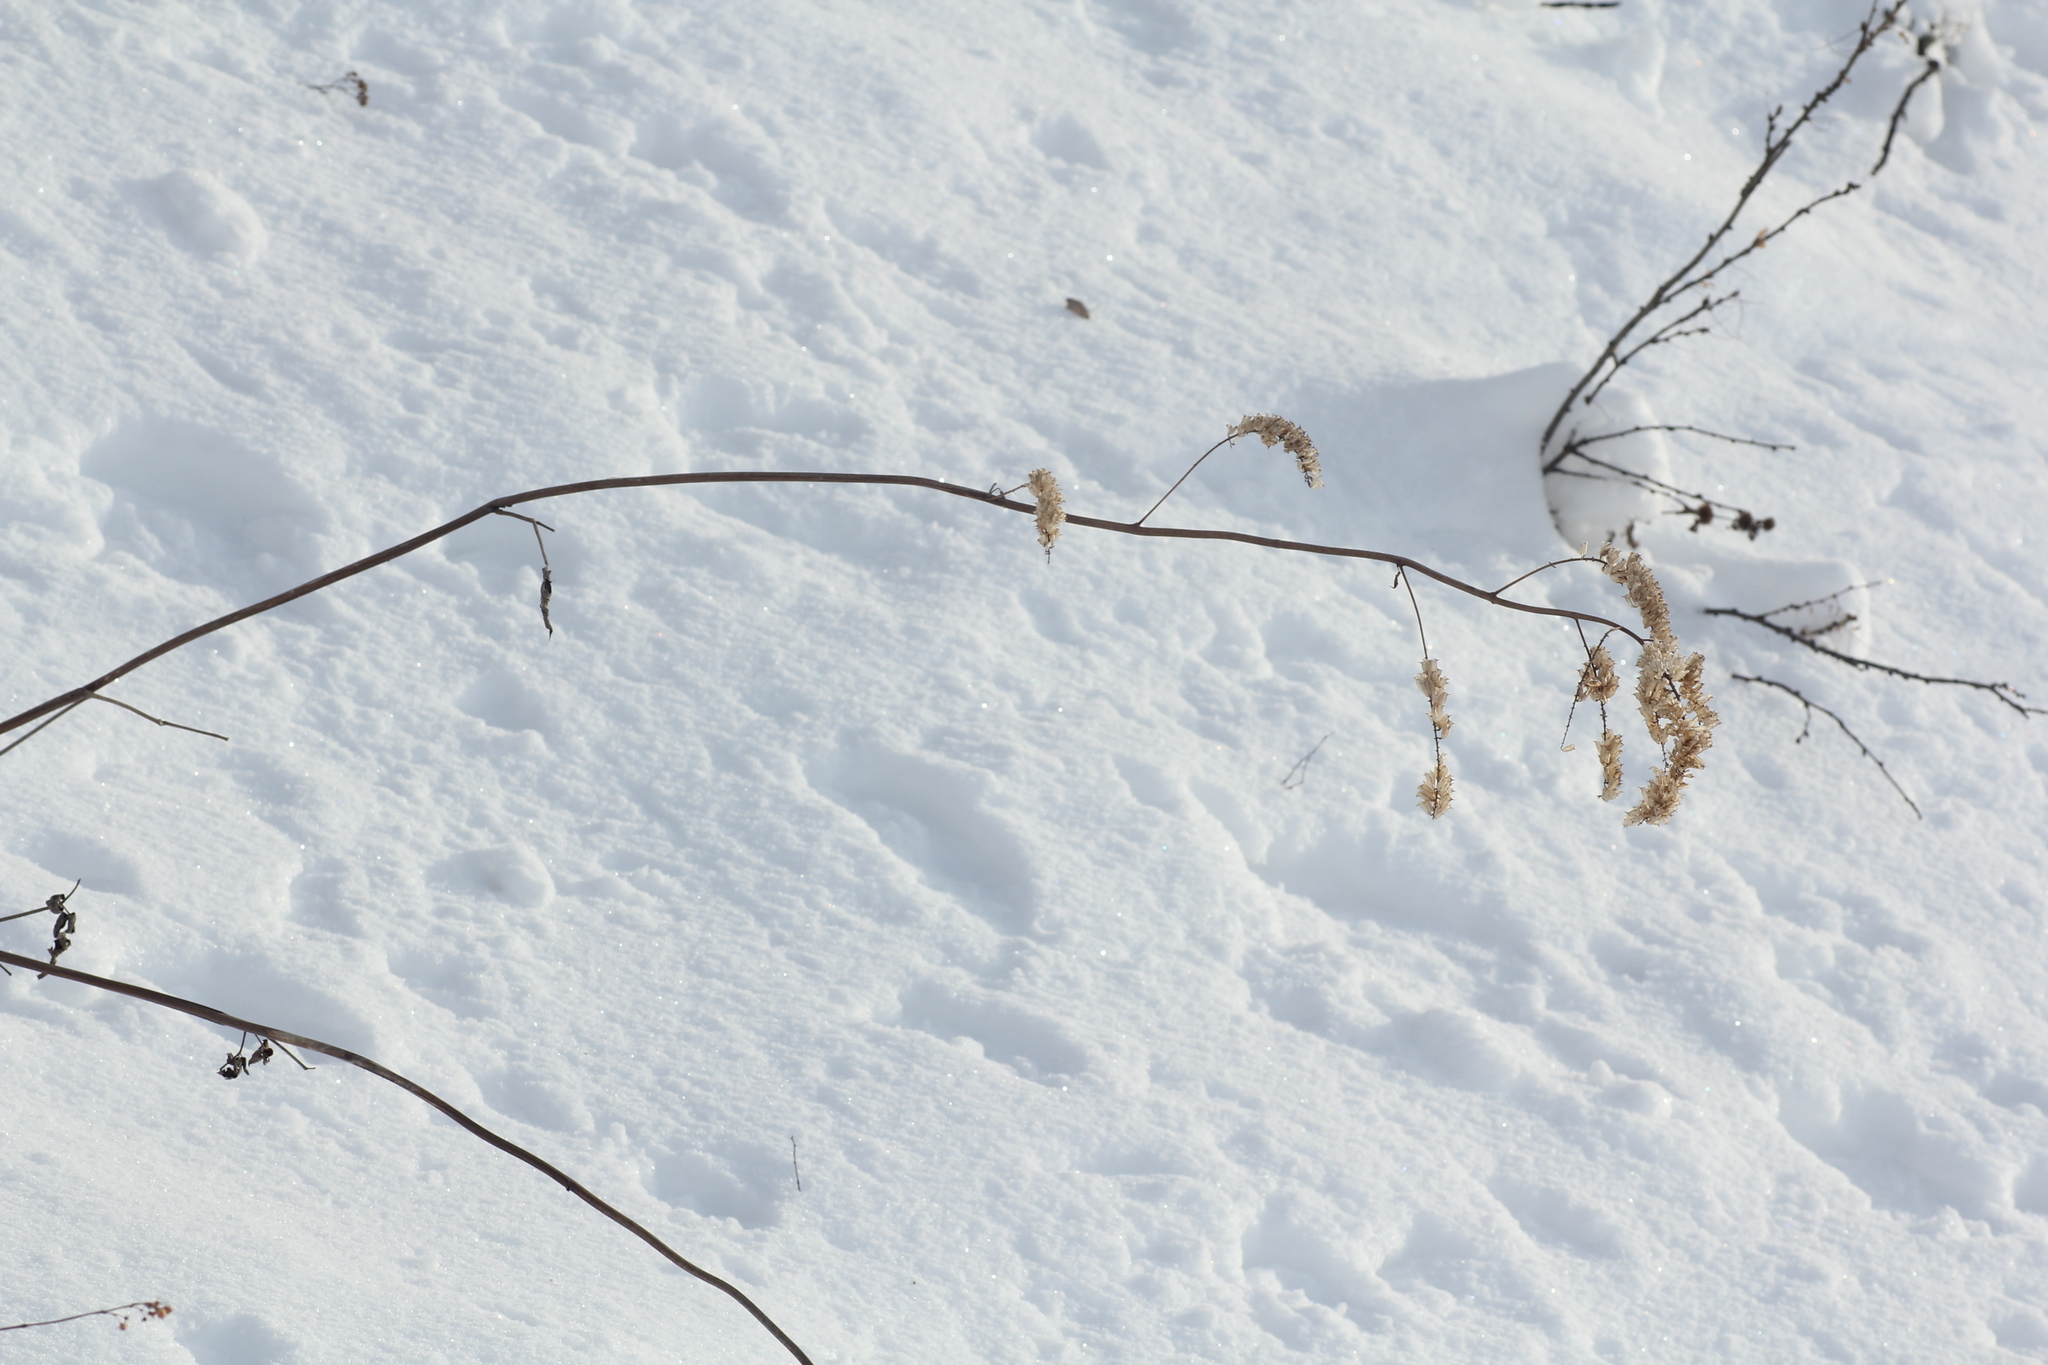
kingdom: Plantae
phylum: Tracheophyta
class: Magnoliopsida
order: Ranunculales
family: Ranunculaceae
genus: Actaea
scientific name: Actaea cimicifuga
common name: Chinese cimicifuga
